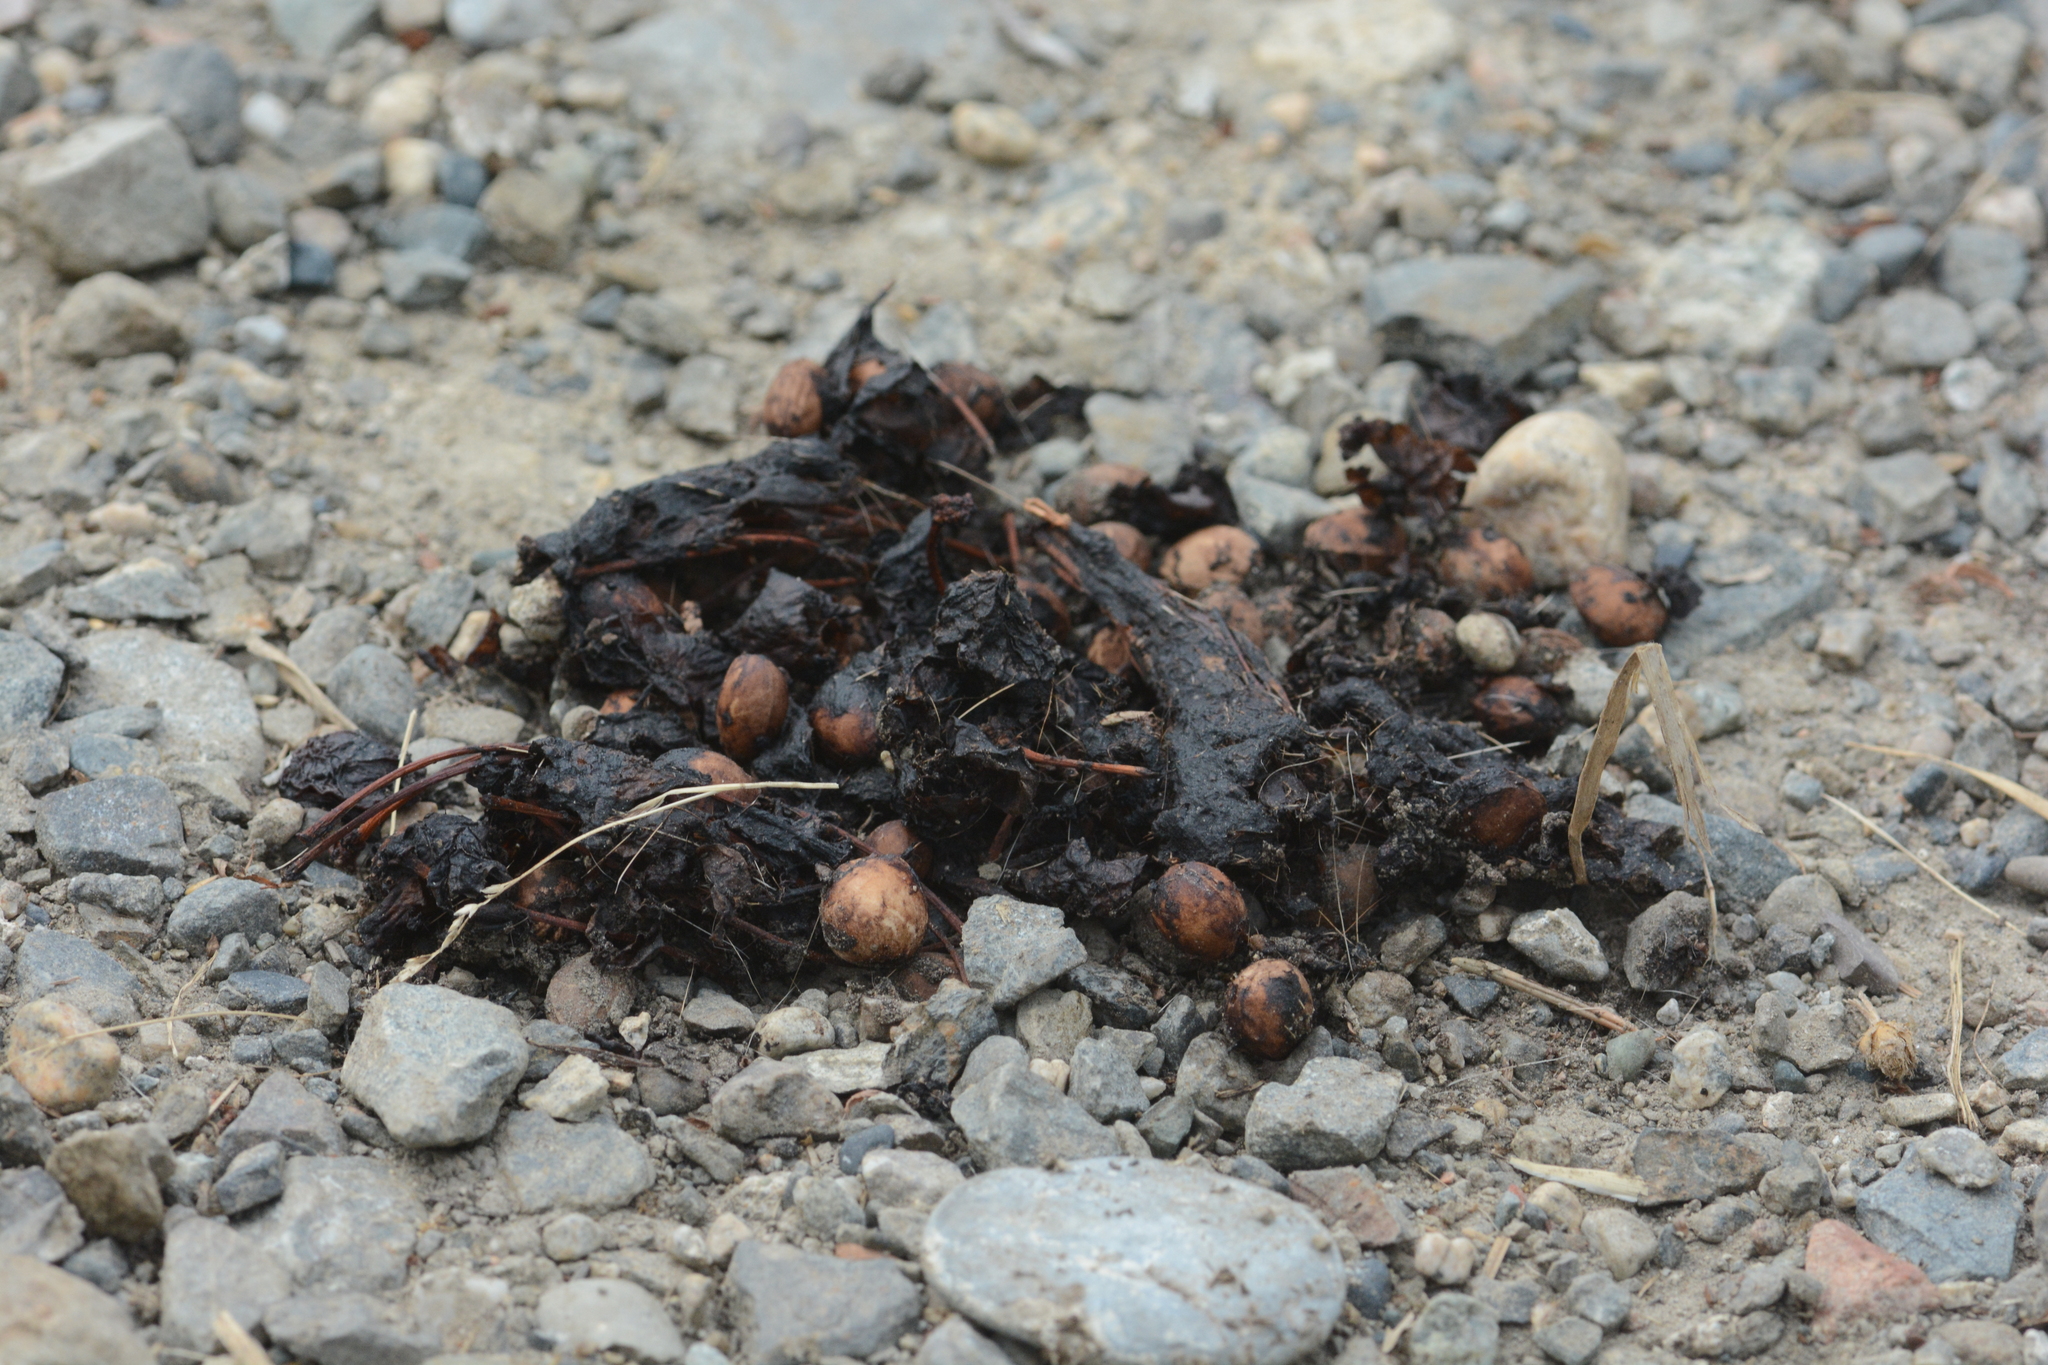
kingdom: Animalia
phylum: Chordata
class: Mammalia
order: Carnivora
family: Ursidae
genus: Ursus
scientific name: Ursus americanus
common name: American black bear
